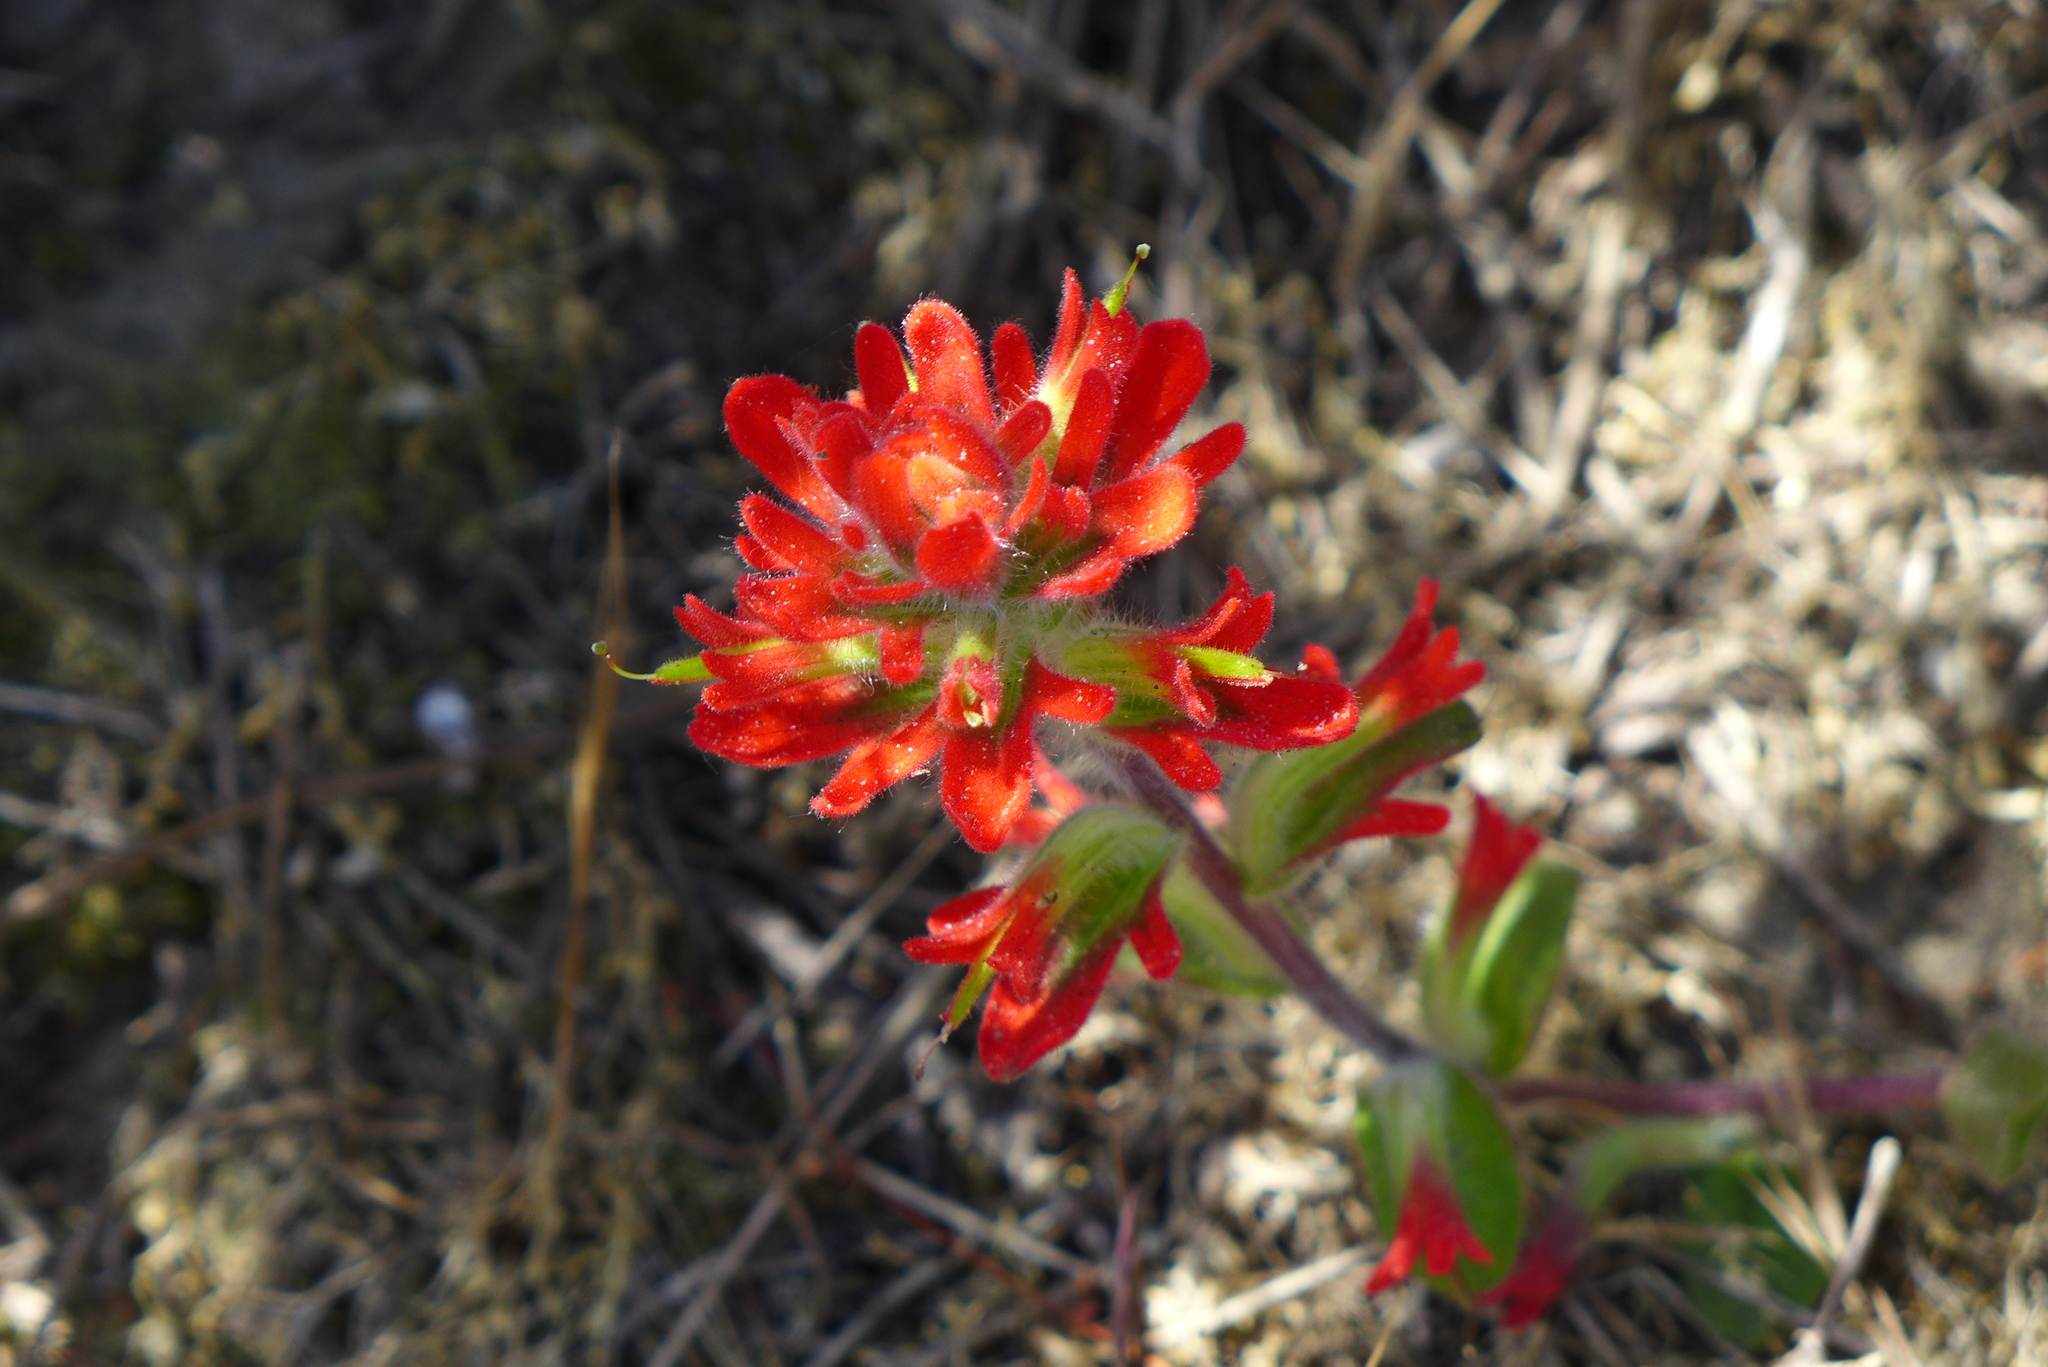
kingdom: Plantae
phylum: Tracheophyta
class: Magnoliopsida
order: Lamiales
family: Orobanchaceae
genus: Castilleja
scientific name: Castilleja affinis
